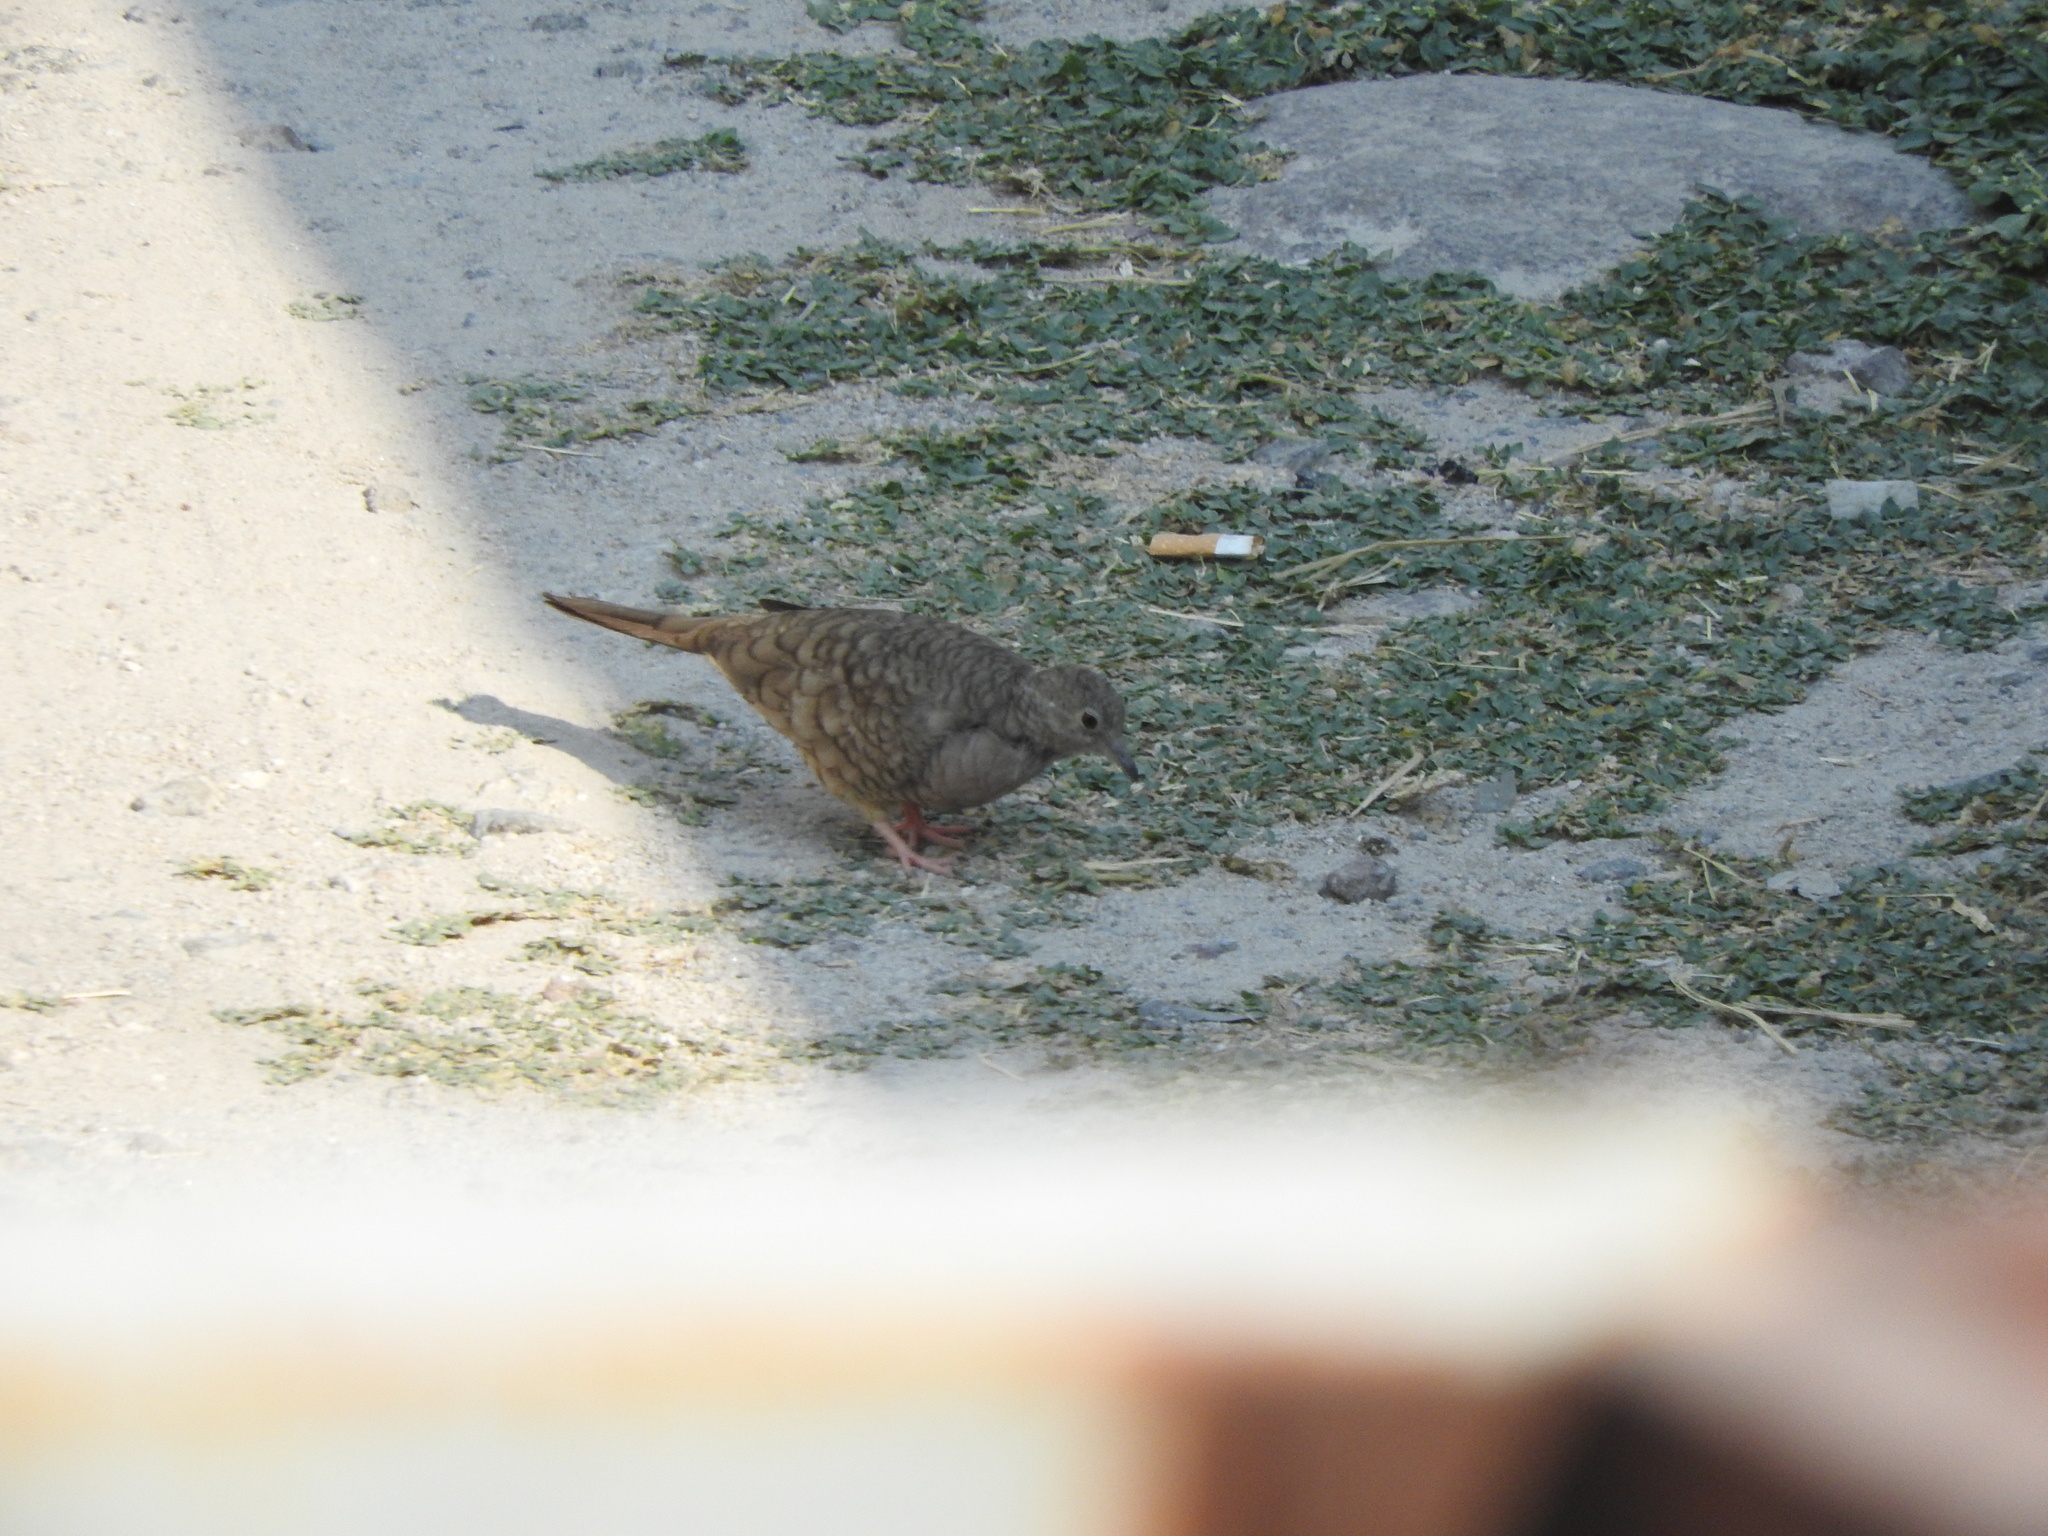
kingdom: Animalia
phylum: Chordata
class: Aves
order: Columbiformes
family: Columbidae
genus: Columbina
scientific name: Columbina inca
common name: Inca dove
